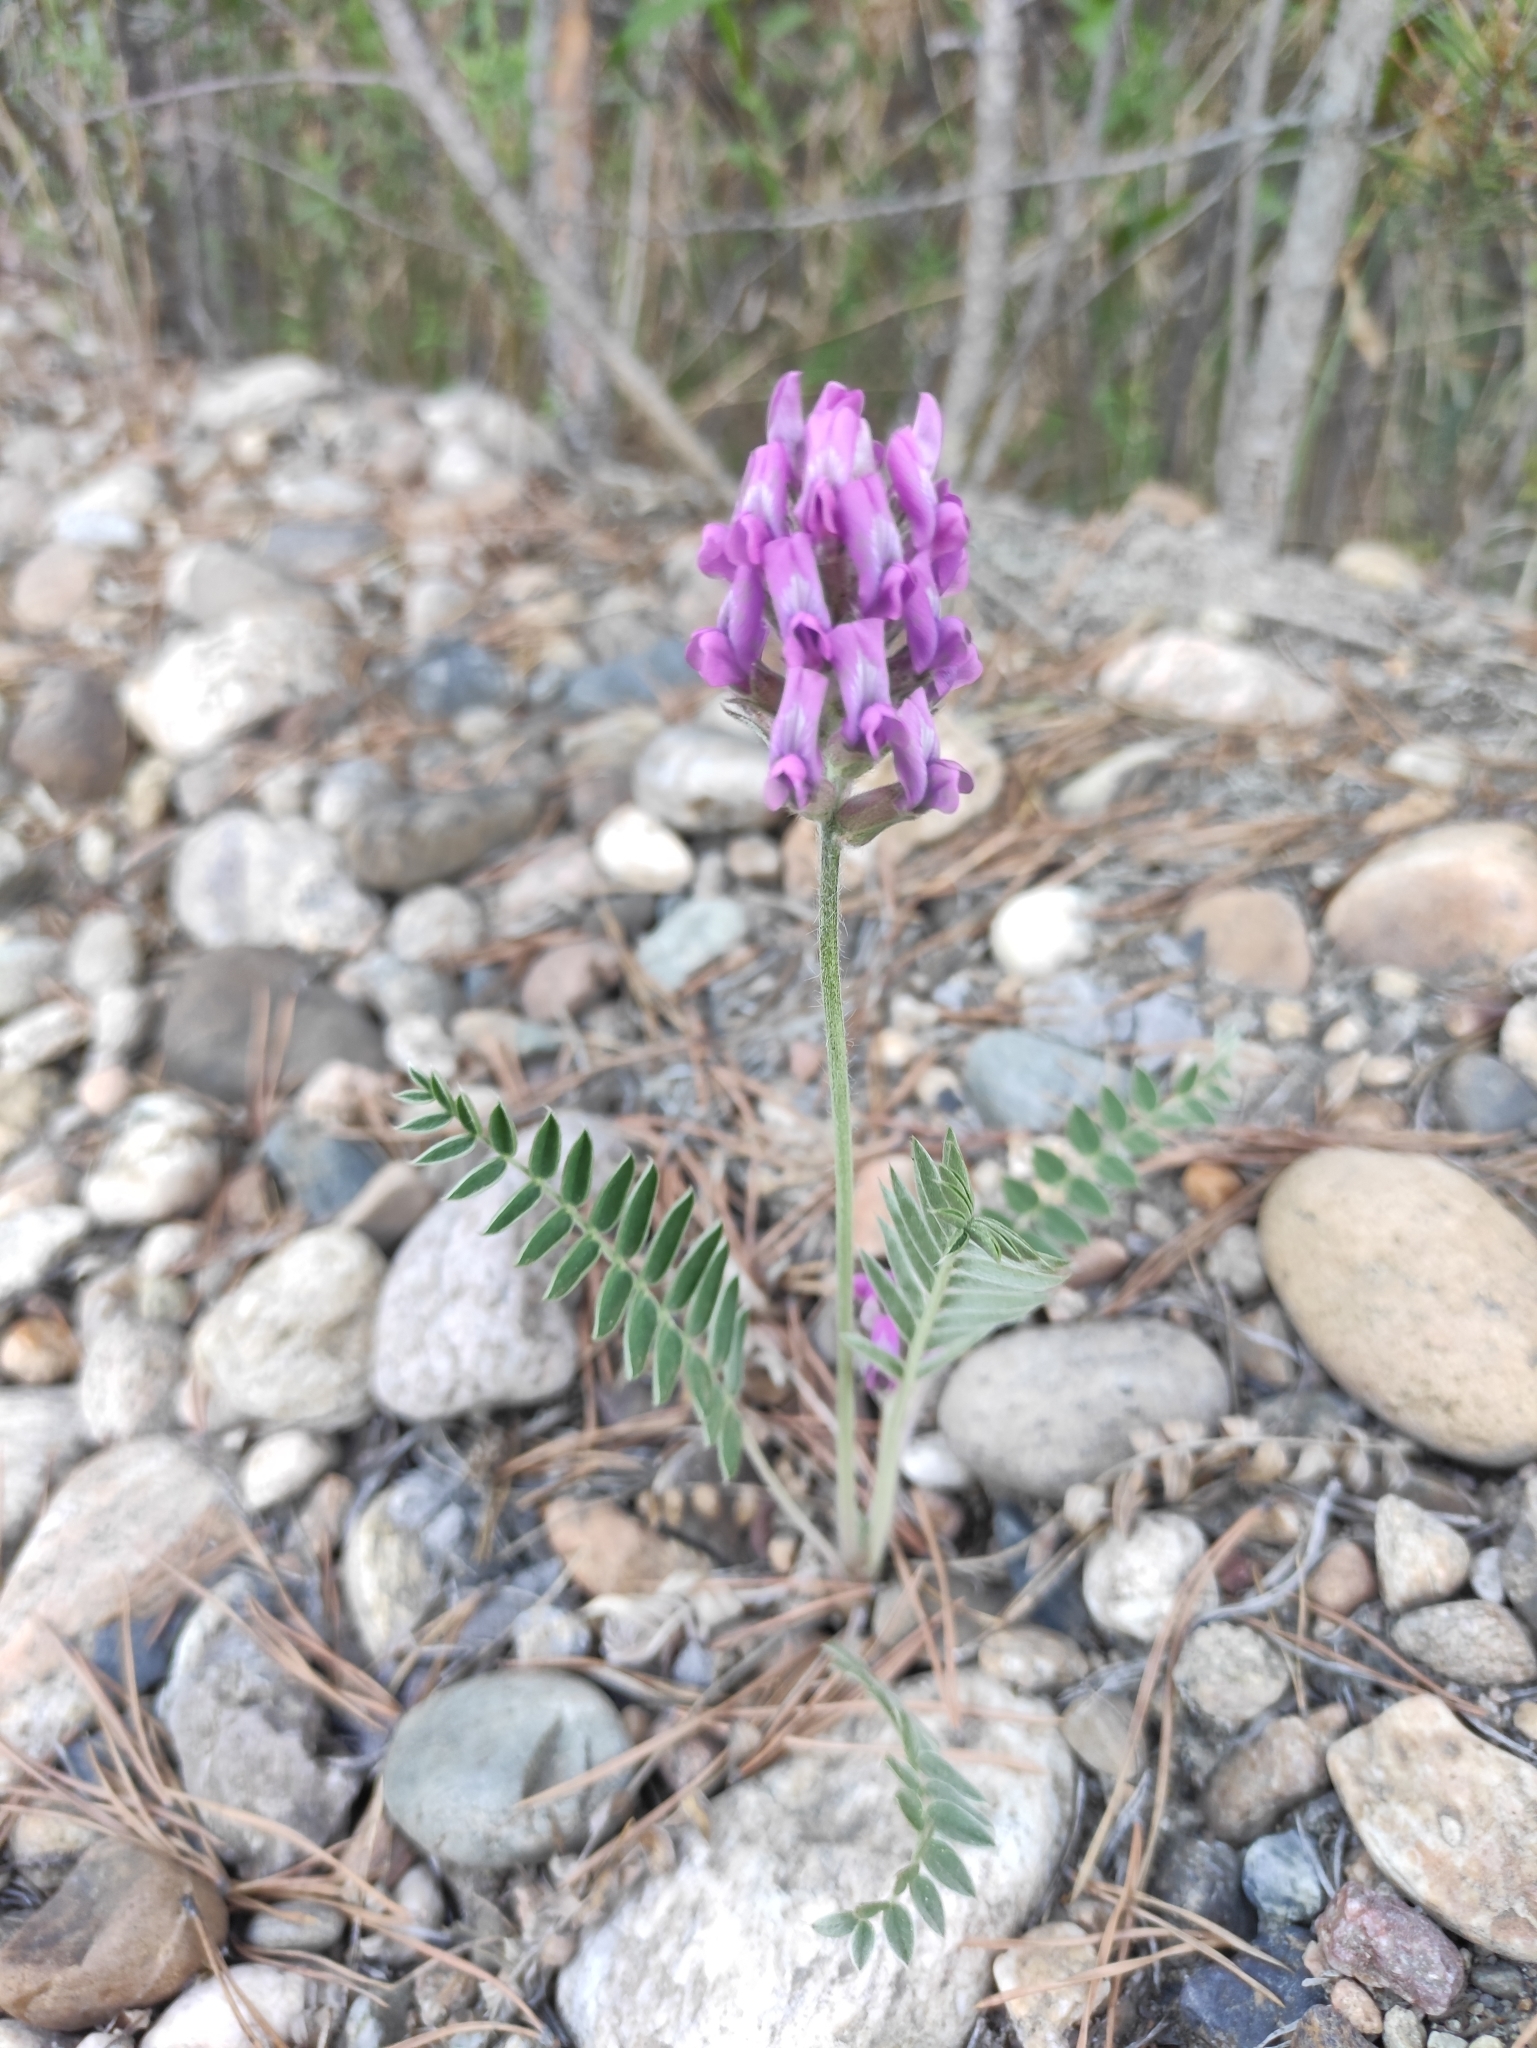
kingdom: Plantae
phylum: Tracheophyta
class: Magnoliopsida
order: Fabales
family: Fabaceae
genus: Oxytropis
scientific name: Oxytropis strobilacea
